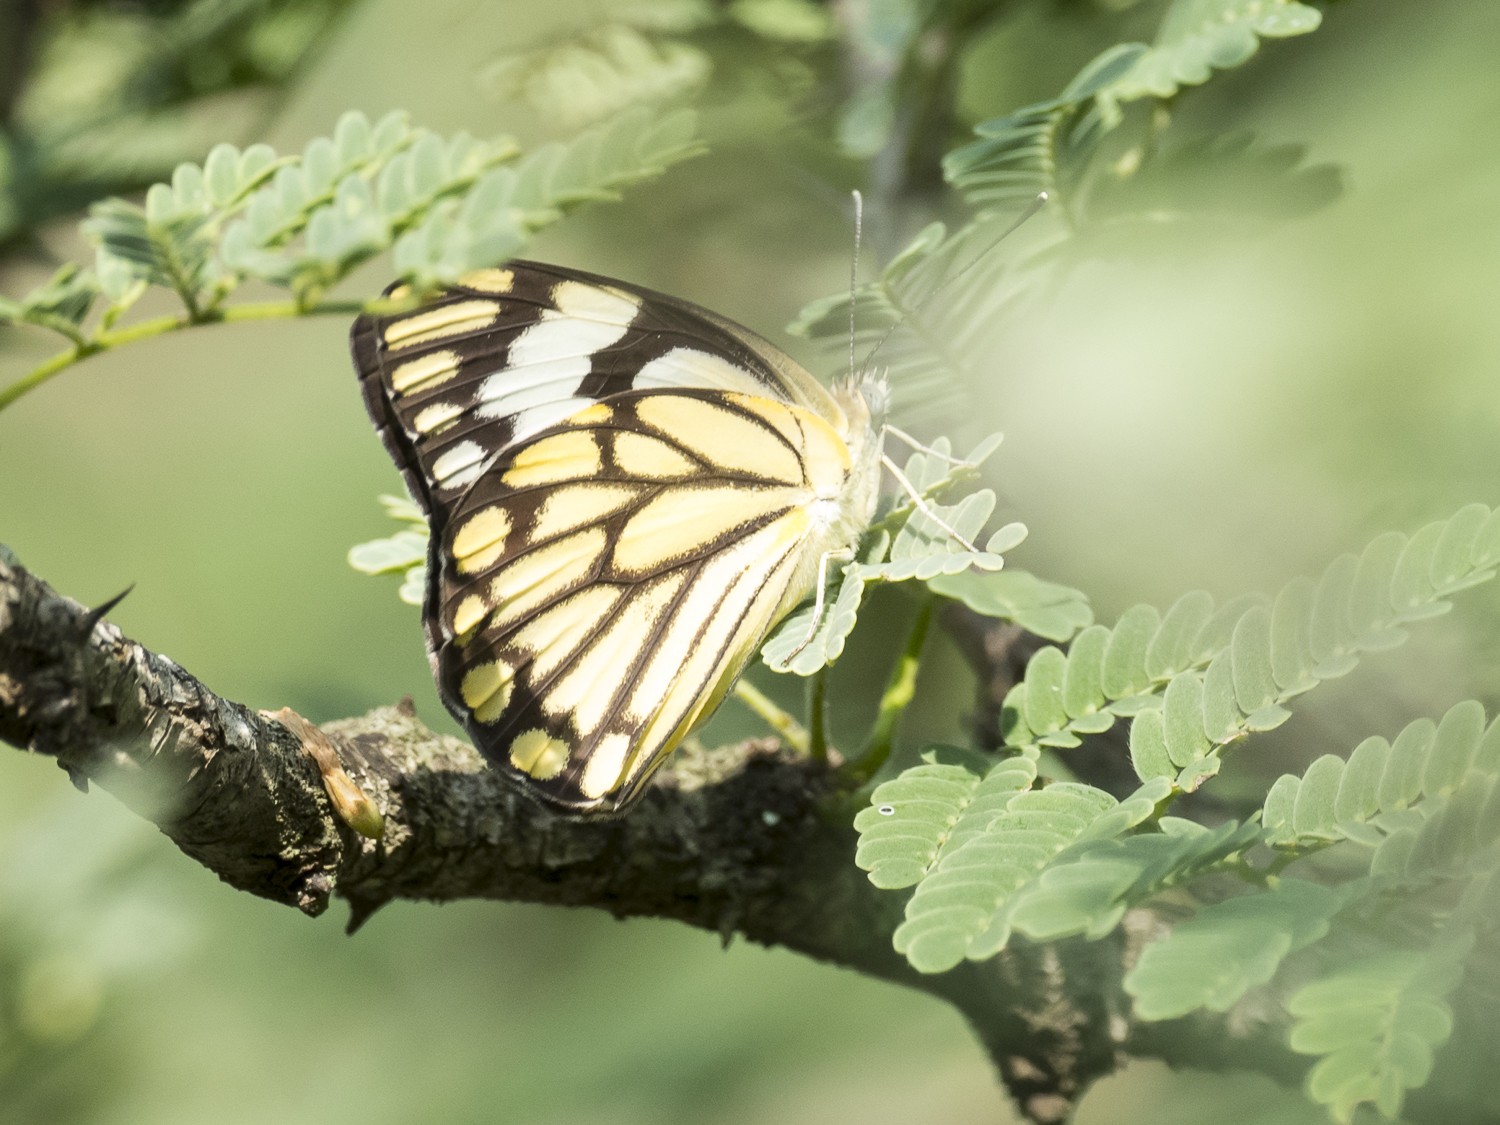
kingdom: Animalia
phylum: Arthropoda
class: Insecta
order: Lepidoptera
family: Pieridae
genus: Belenois
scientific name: Belenois aurota
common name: Brown-veined white
